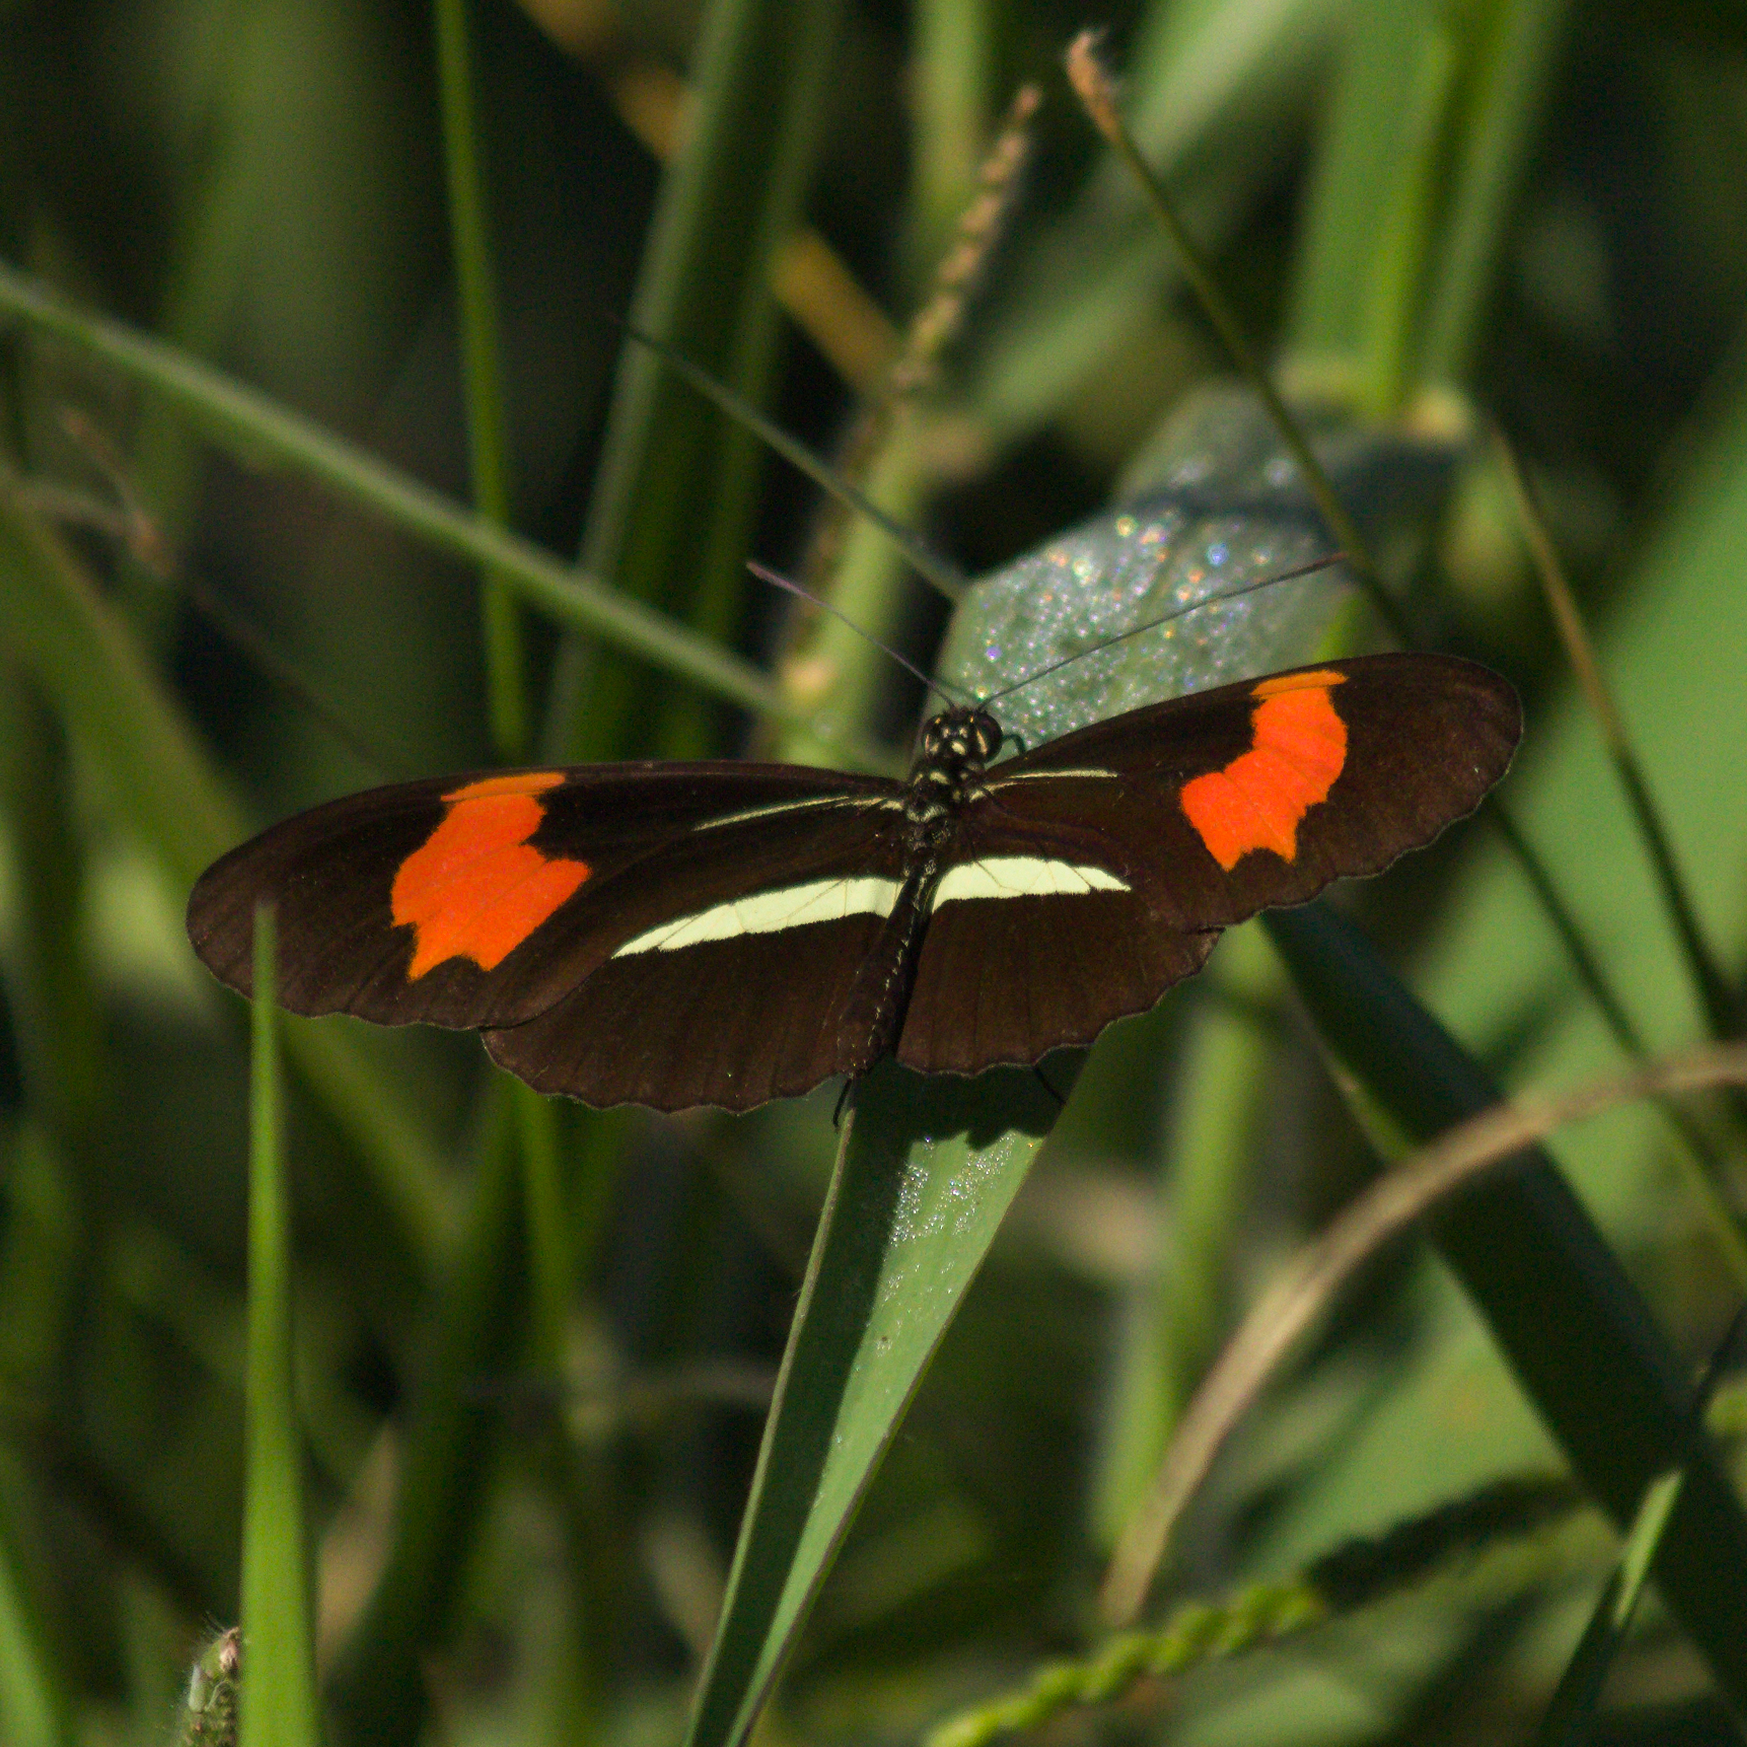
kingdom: Animalia
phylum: Arthropoda
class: Insecta
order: Lepidoptera
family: Nymphalidae
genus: Heliconius
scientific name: Heliconius erato
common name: Common patch longwing
